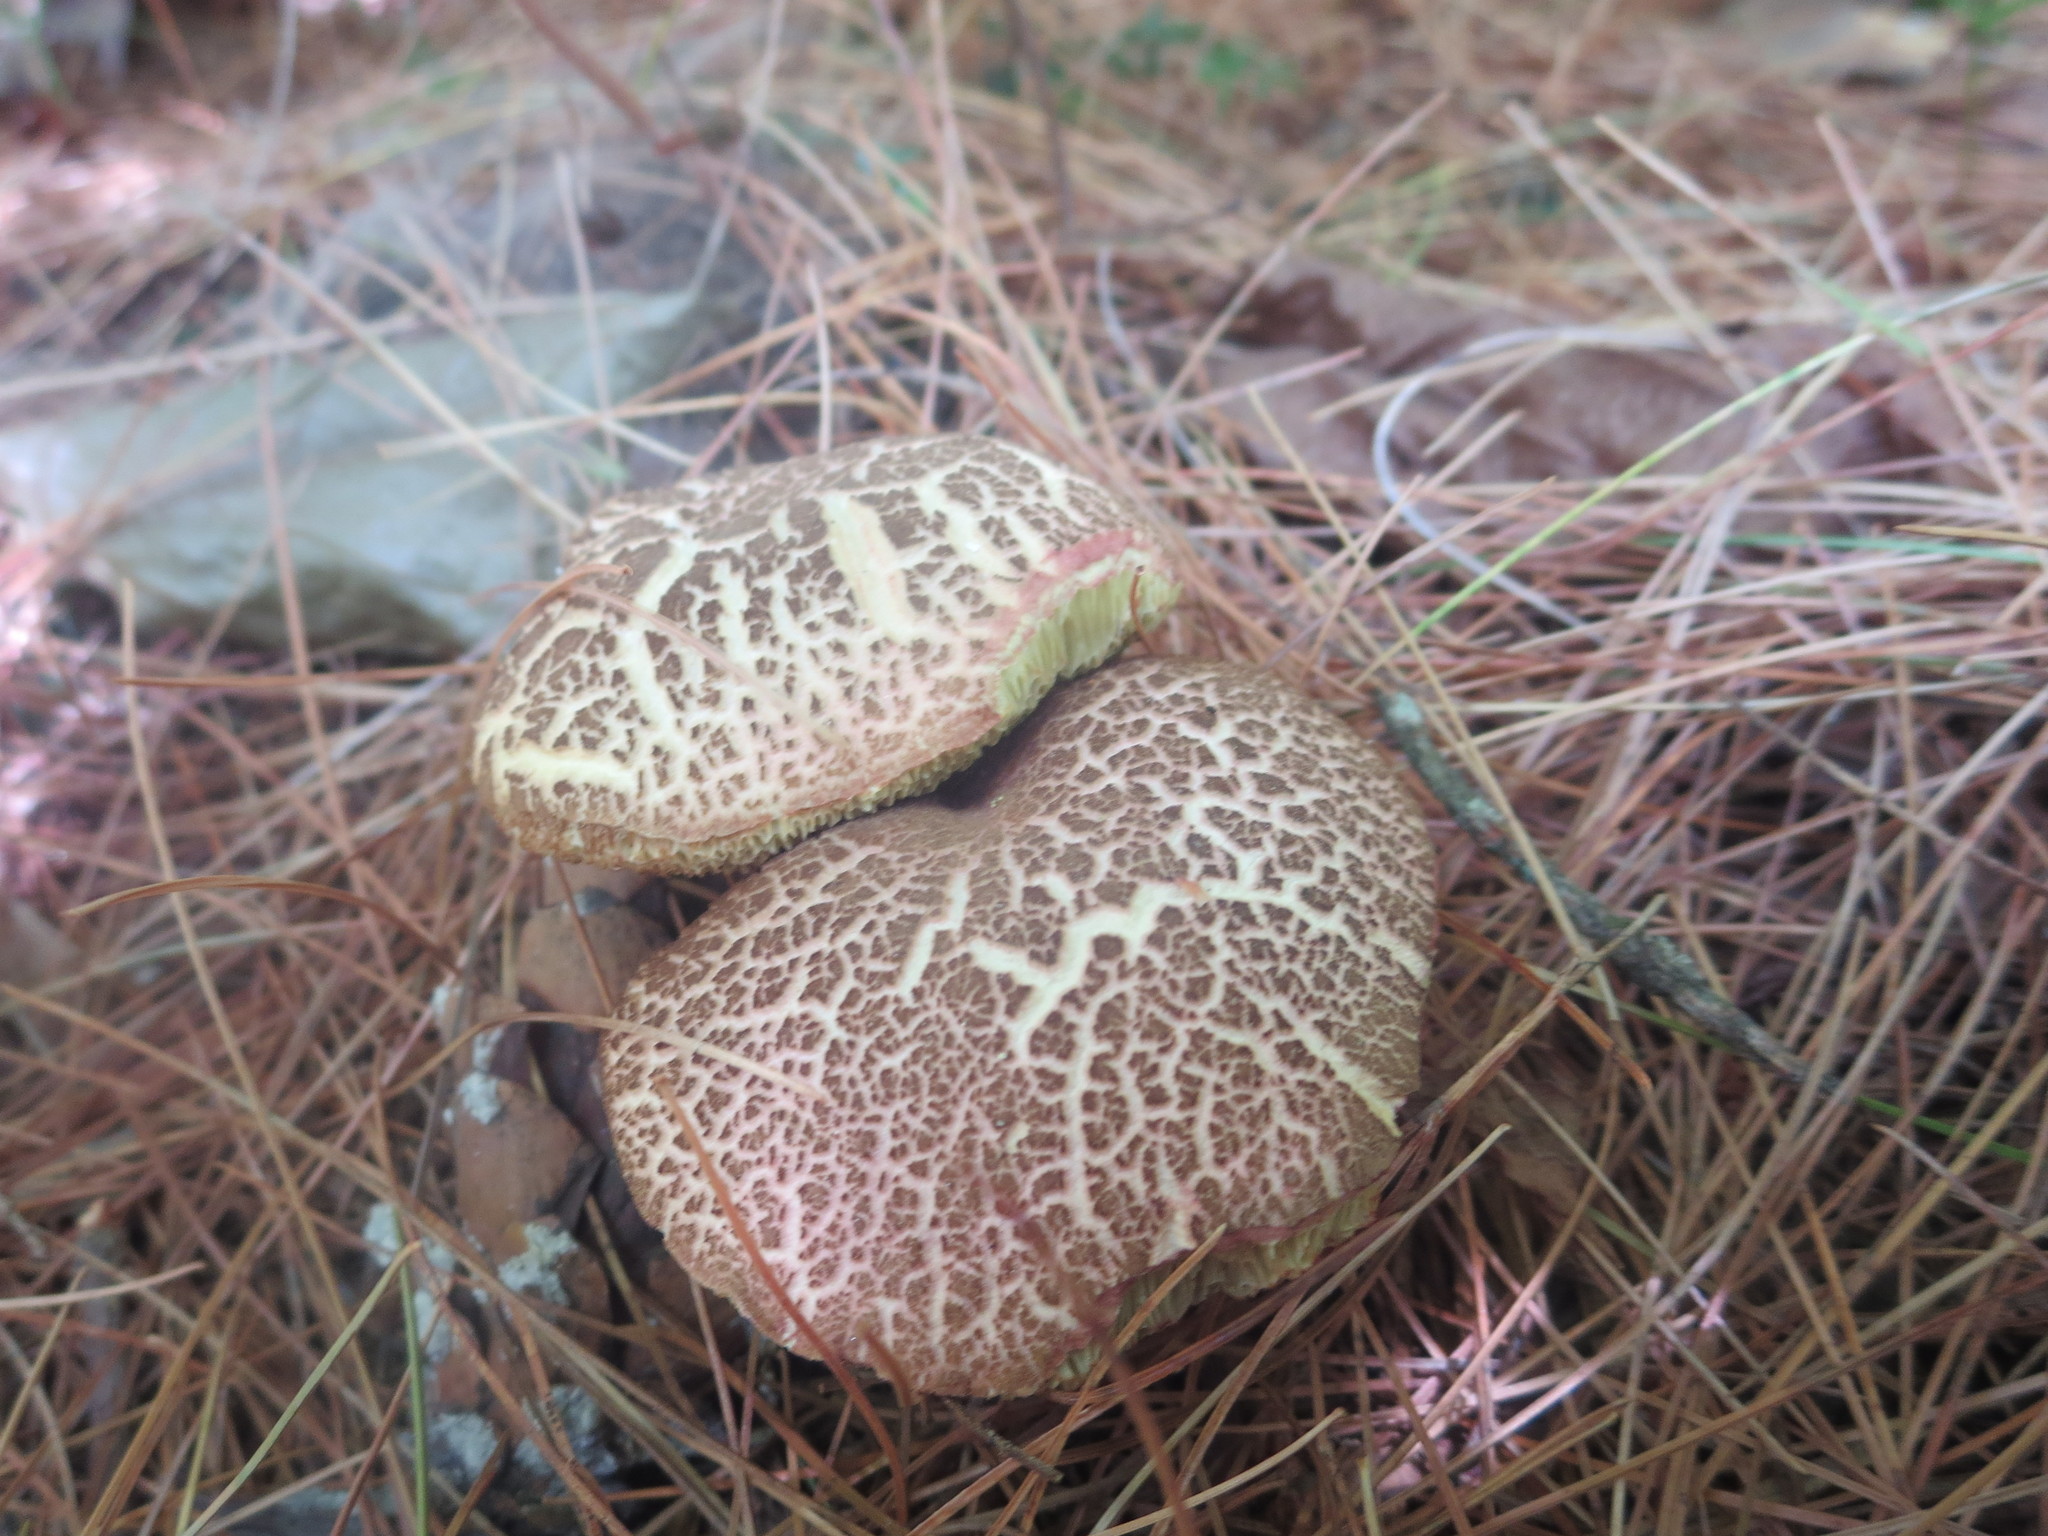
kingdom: Fungi
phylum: Basidiomycota
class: Agaricomycetes
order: Boletales
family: Boletaceae
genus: Xerocomellus
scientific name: Xerocomellus chrysenteron
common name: Red-cracking bolete
